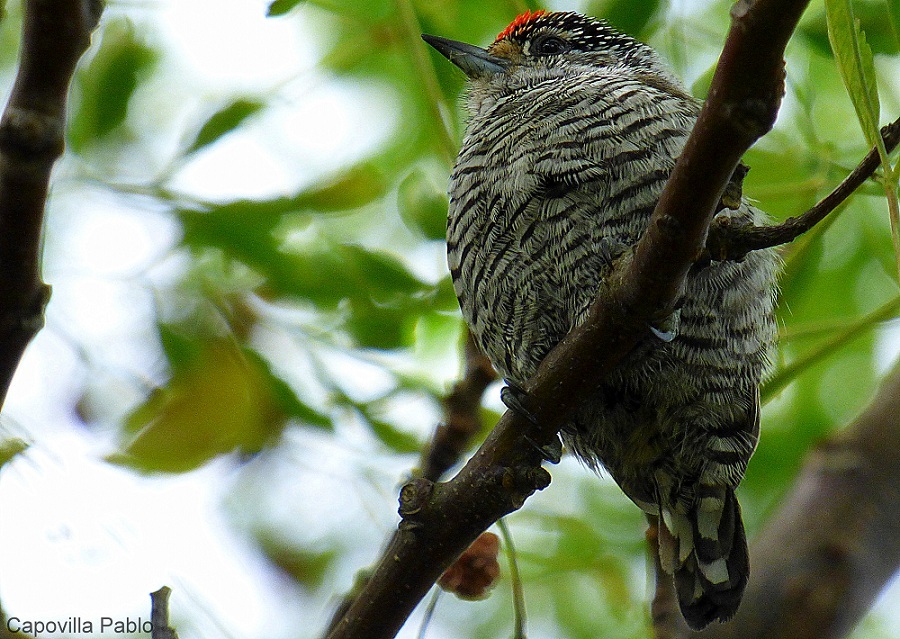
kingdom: Animalia
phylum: Chordata
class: Aves
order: Piciformes
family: Picidae
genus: Picumnus
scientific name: Picumnus cirratus
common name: White-barred piculet
